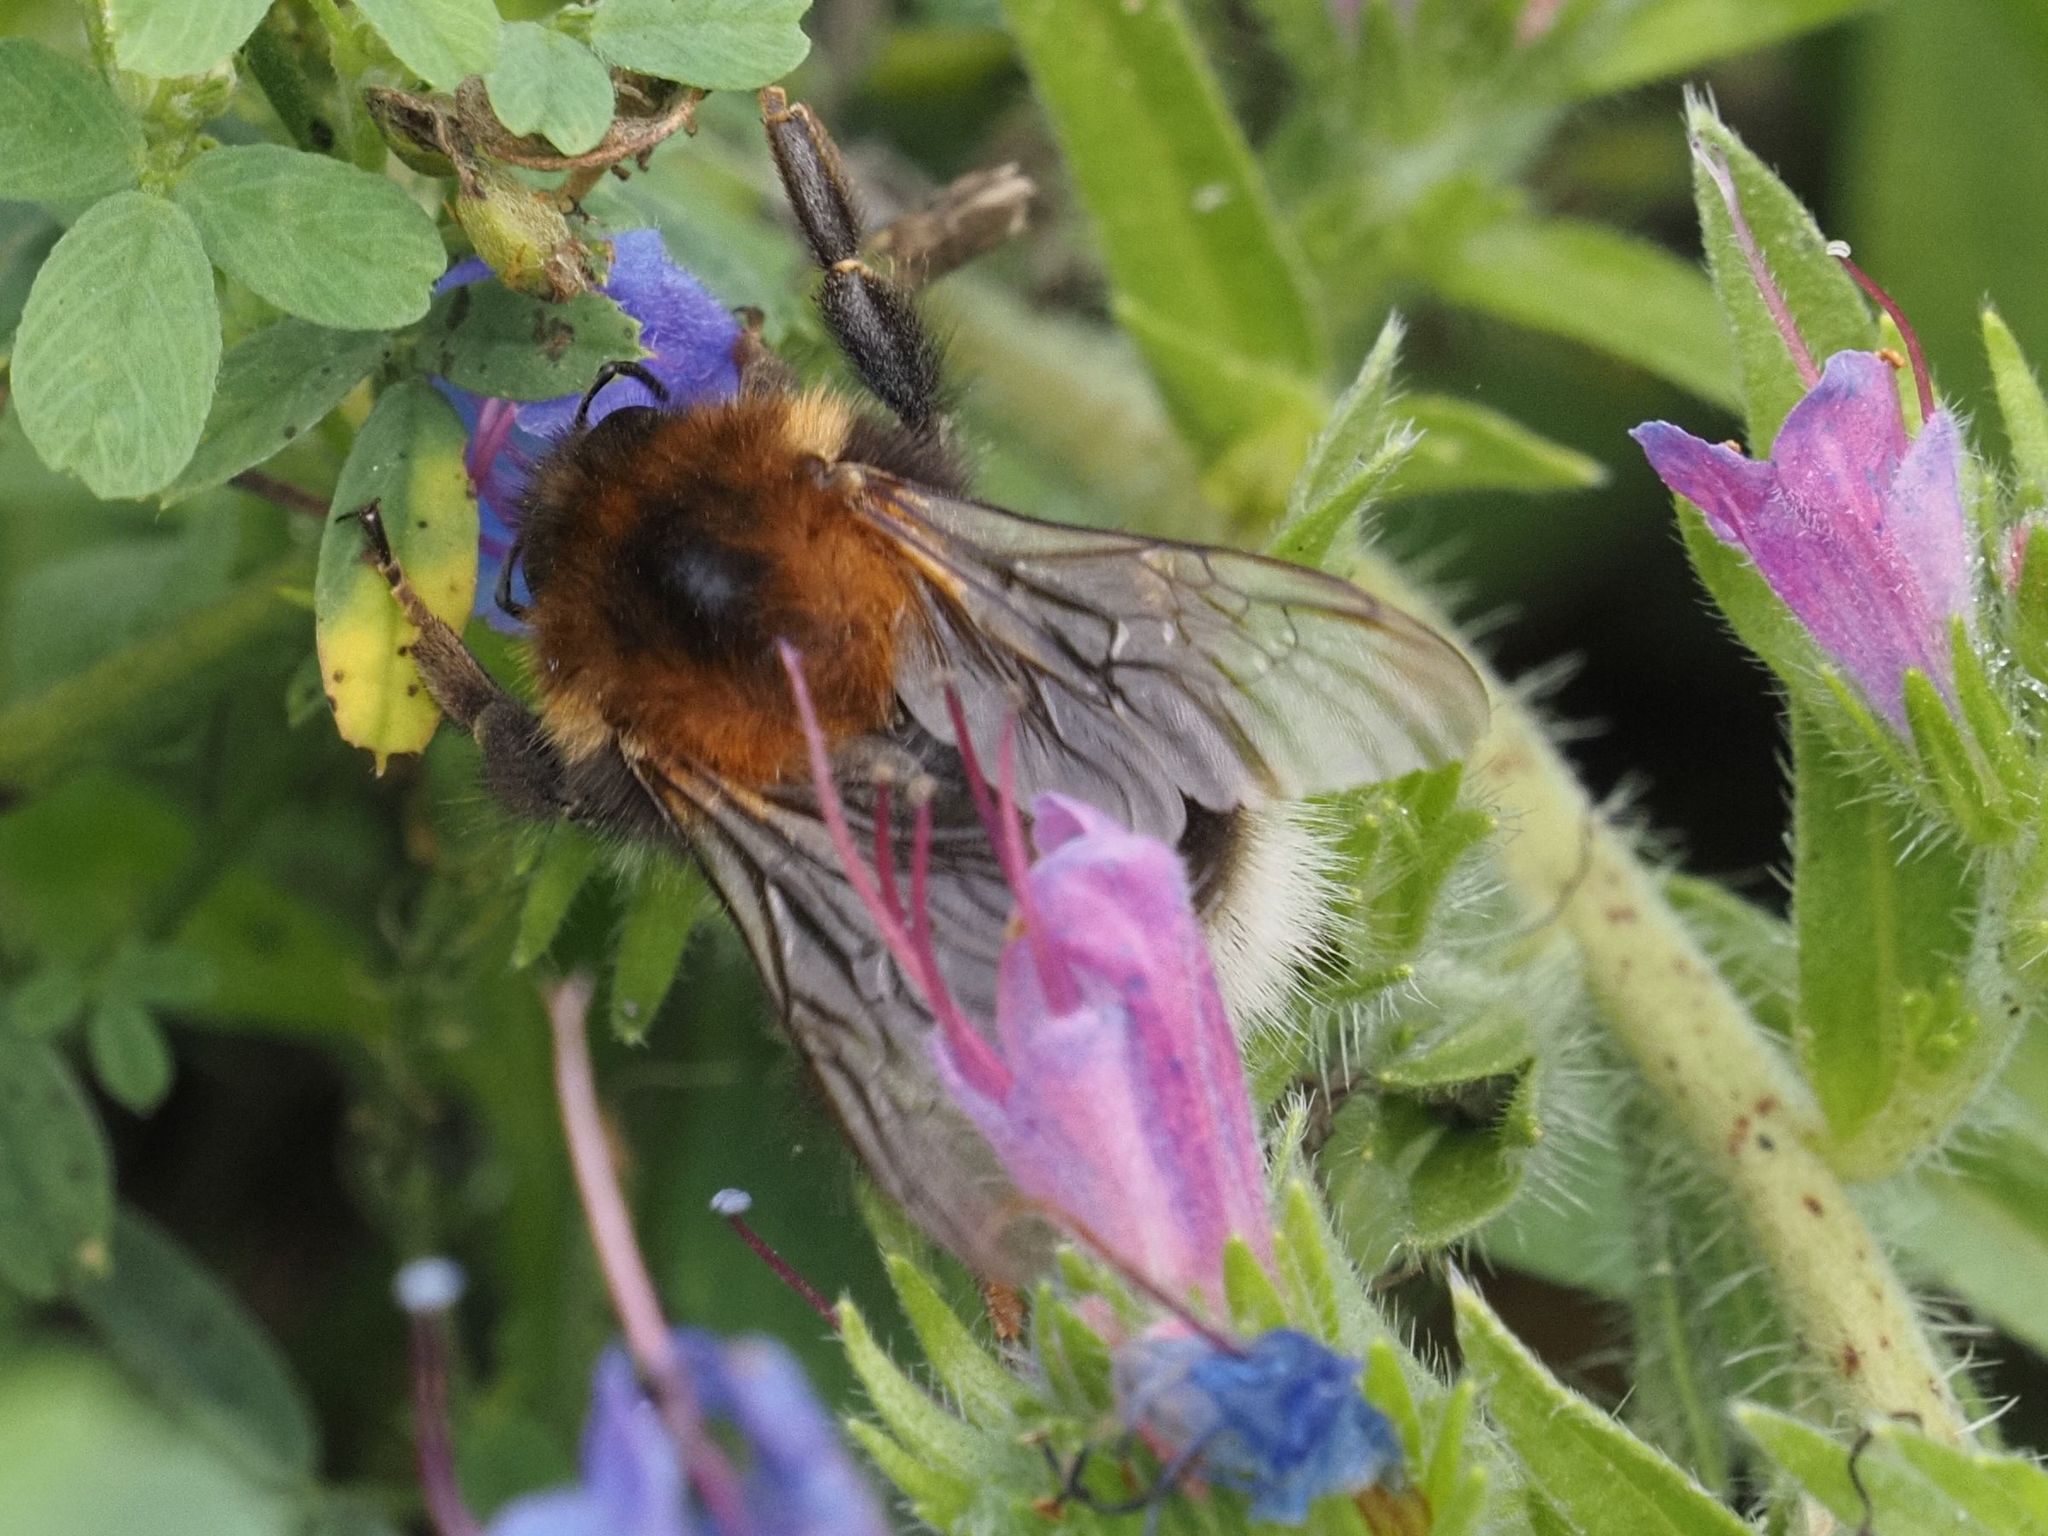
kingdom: Animalia
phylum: Arthropoda
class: Insecta
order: Hymenoptera
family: Apidae
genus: Bombus
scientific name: Bombus hypnorum
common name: New garden bumblebee
